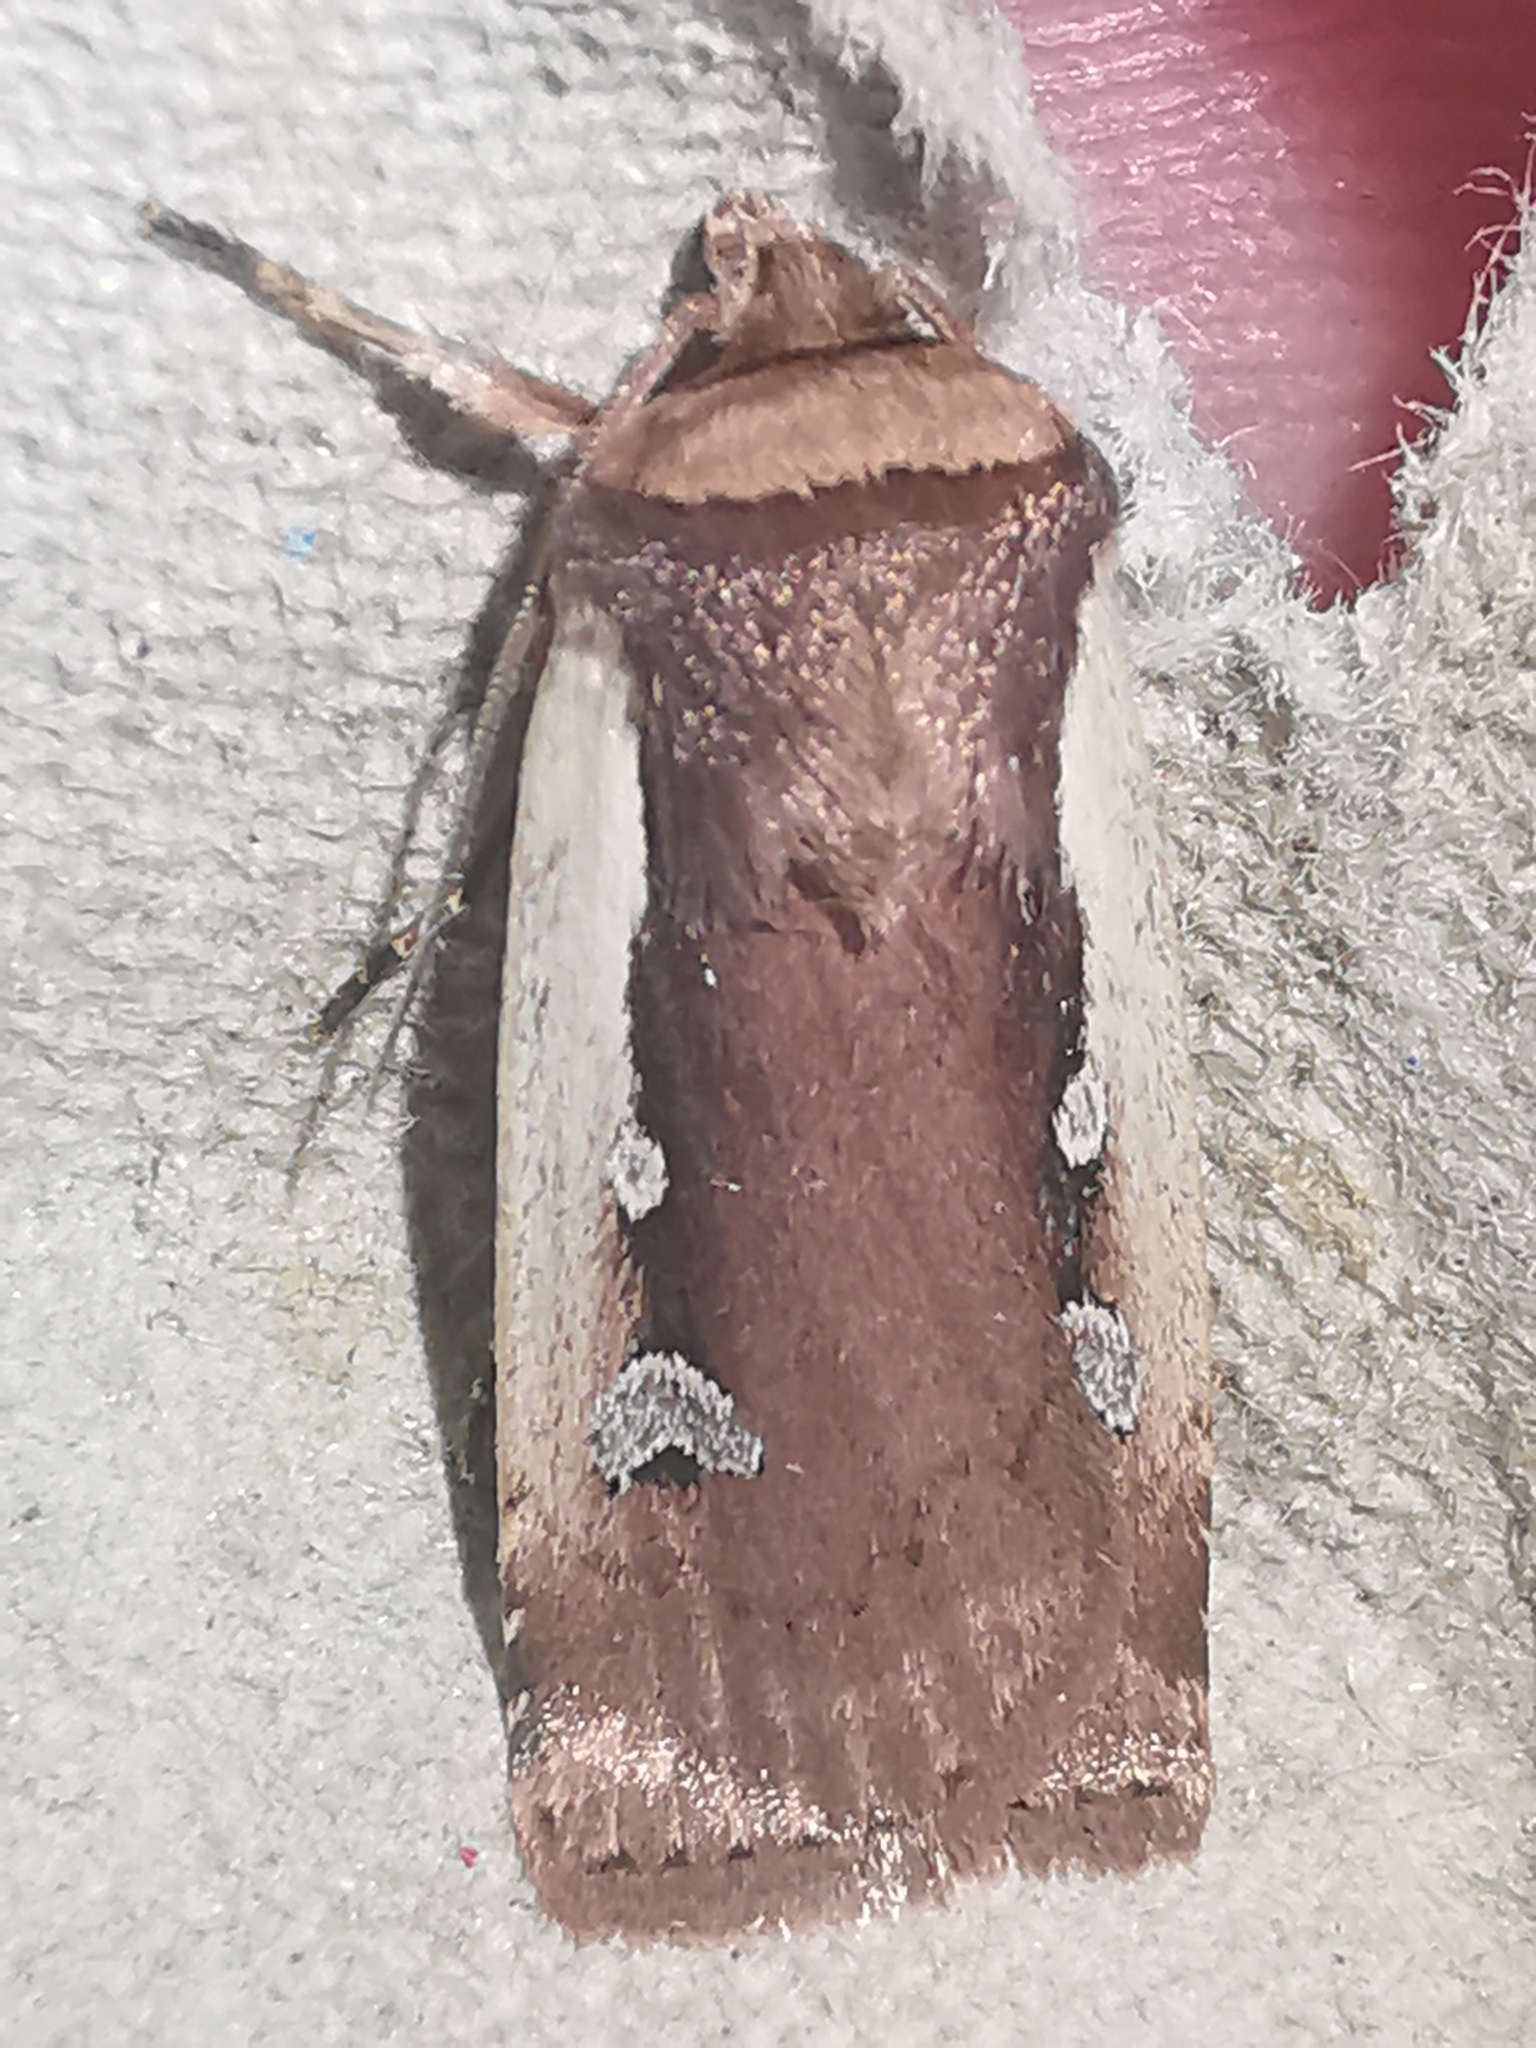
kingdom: Animalia
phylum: Arthropoda
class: Insecta
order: Lepidoptera
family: Noctuidae
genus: Ochropleura
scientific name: Ochropleura plecta
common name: Flame shoulder
